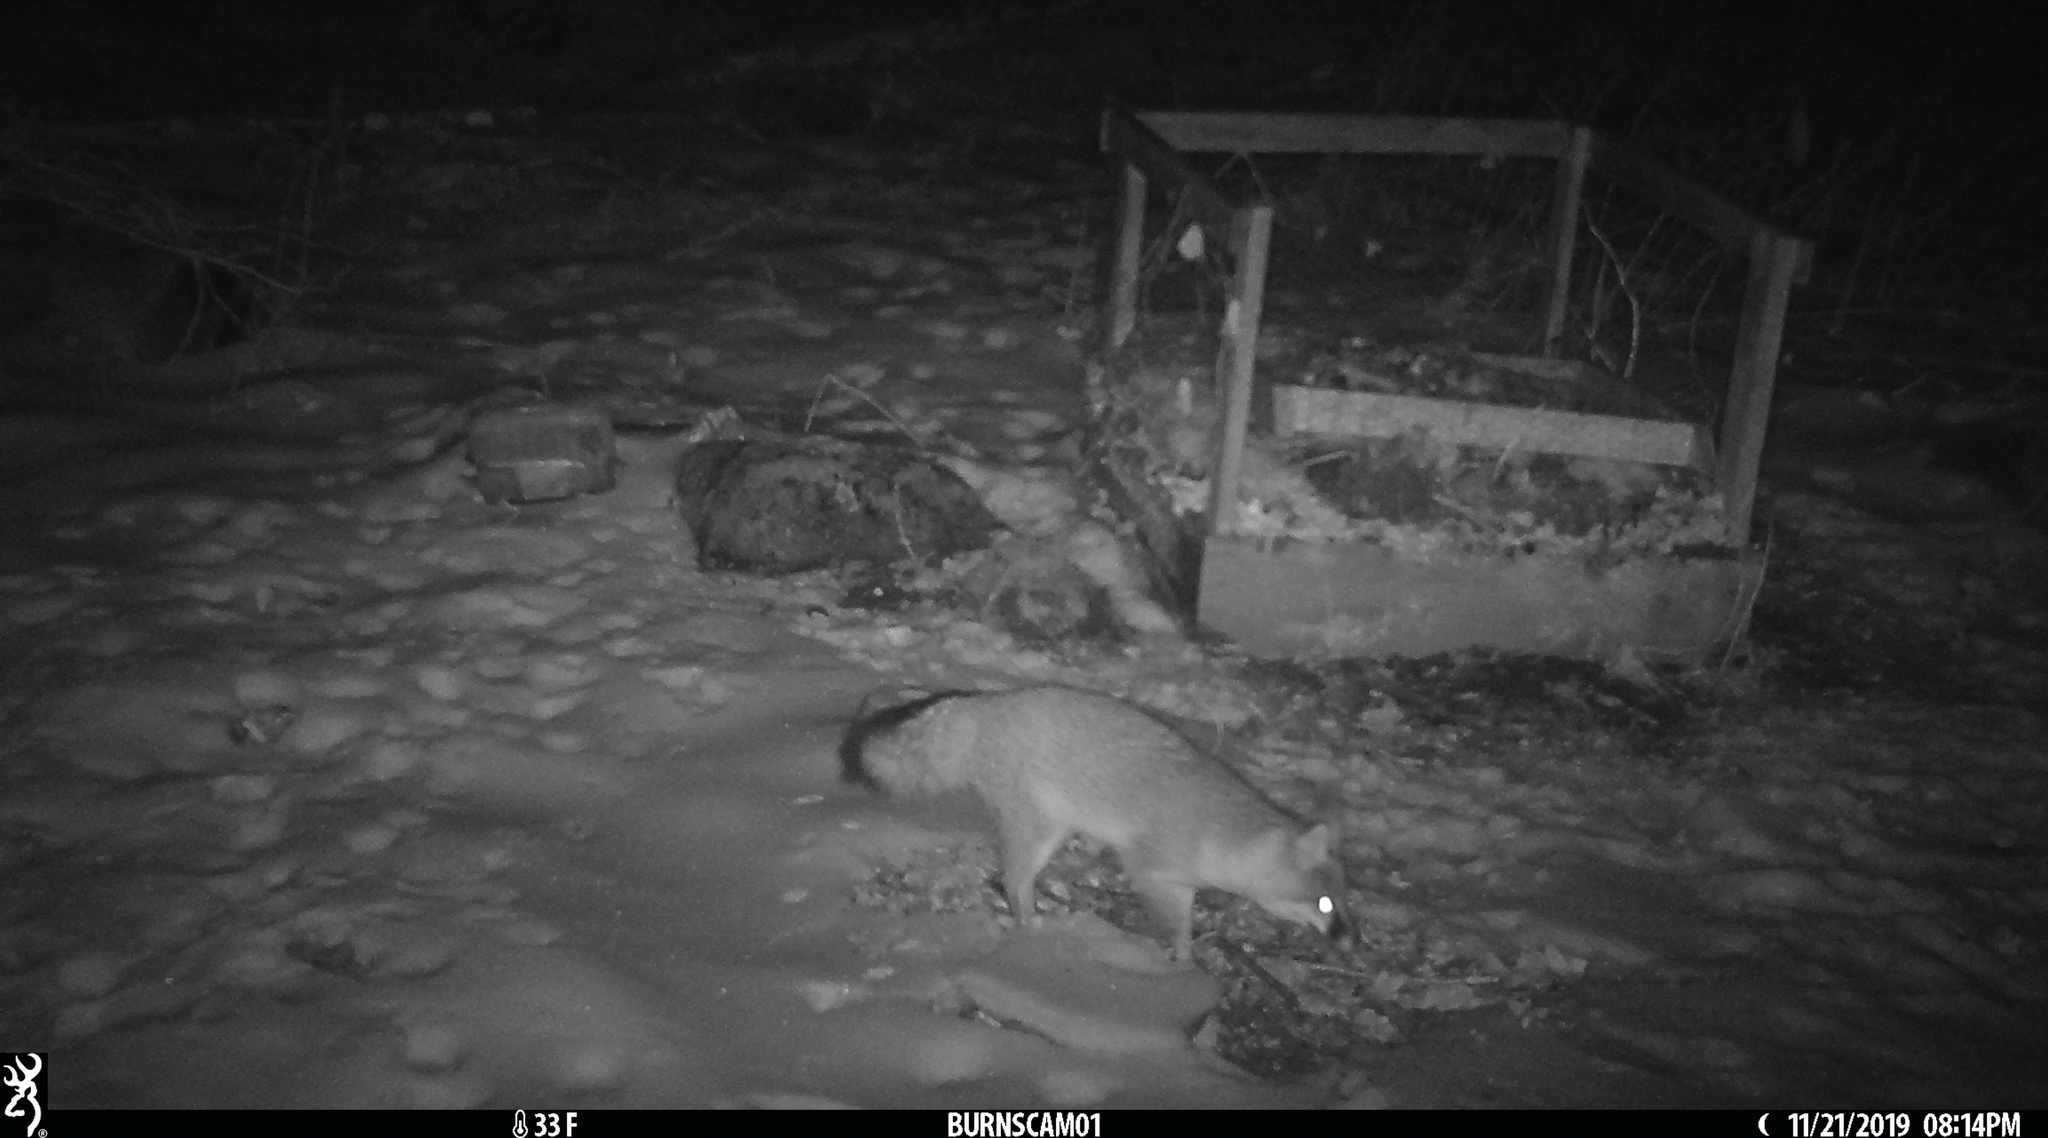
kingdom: Animalia
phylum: Chordata
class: Mammalia
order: Carnivora
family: Canidae
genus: Urocyon
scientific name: Urocyon cinereoargenteus
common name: Gray fox
